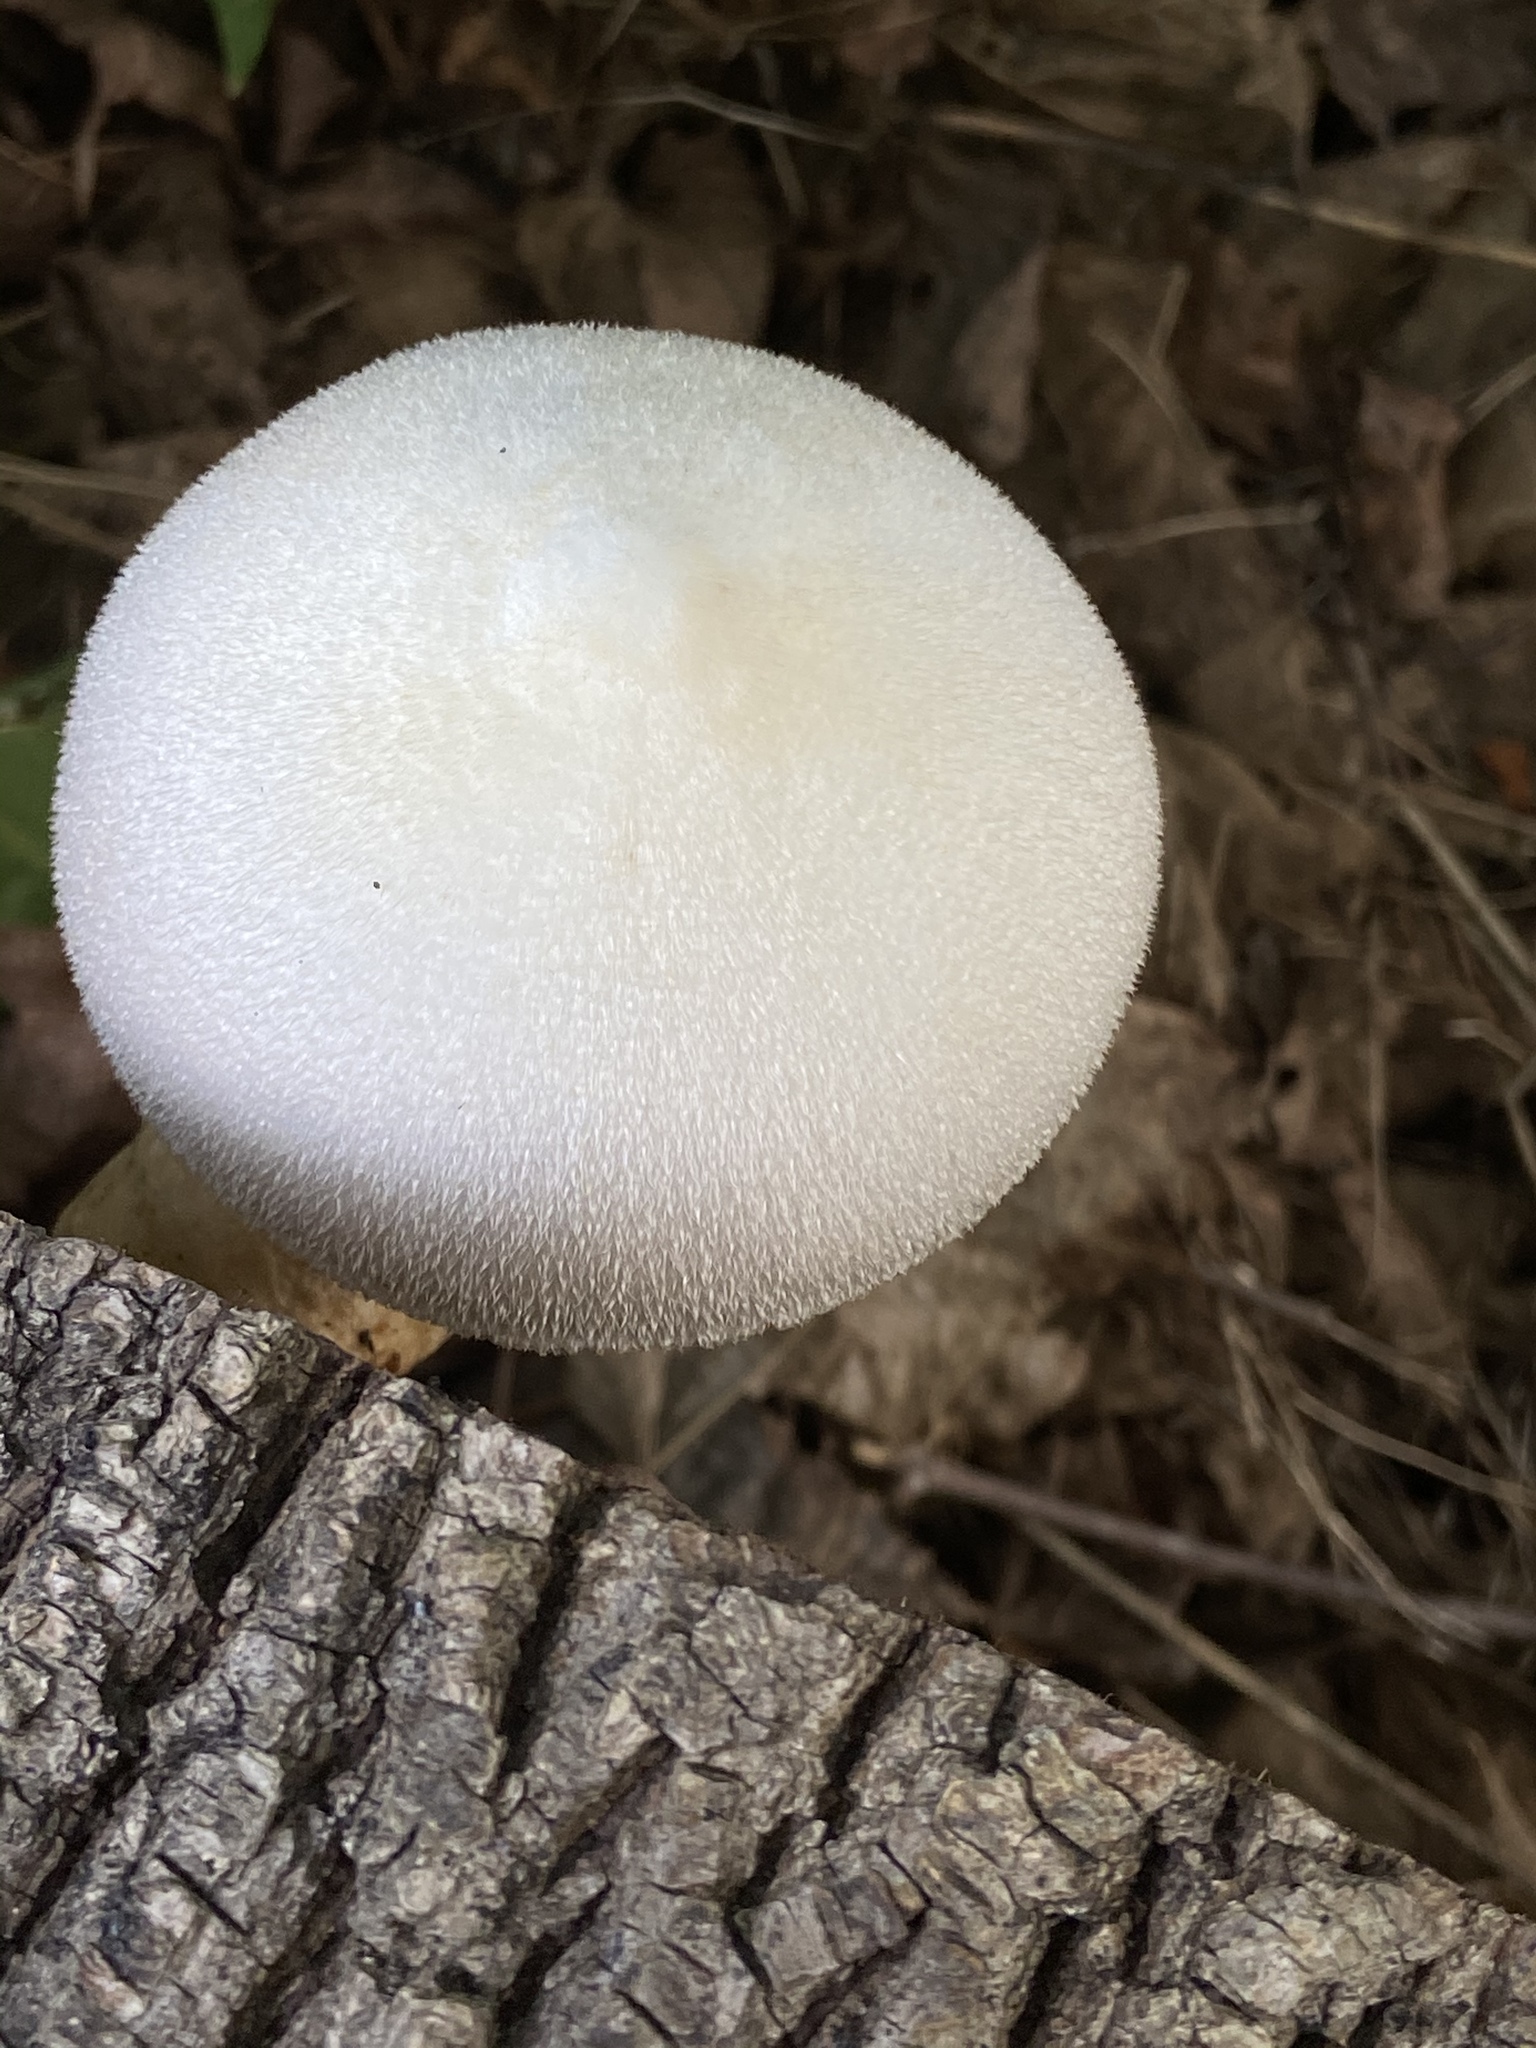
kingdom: Fungi
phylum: Basidiomycota
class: Agaricomycetes
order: Agaricales
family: Pluteaceae
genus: Volvariella
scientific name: Volvariella bombycina
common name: Silky rosegill
